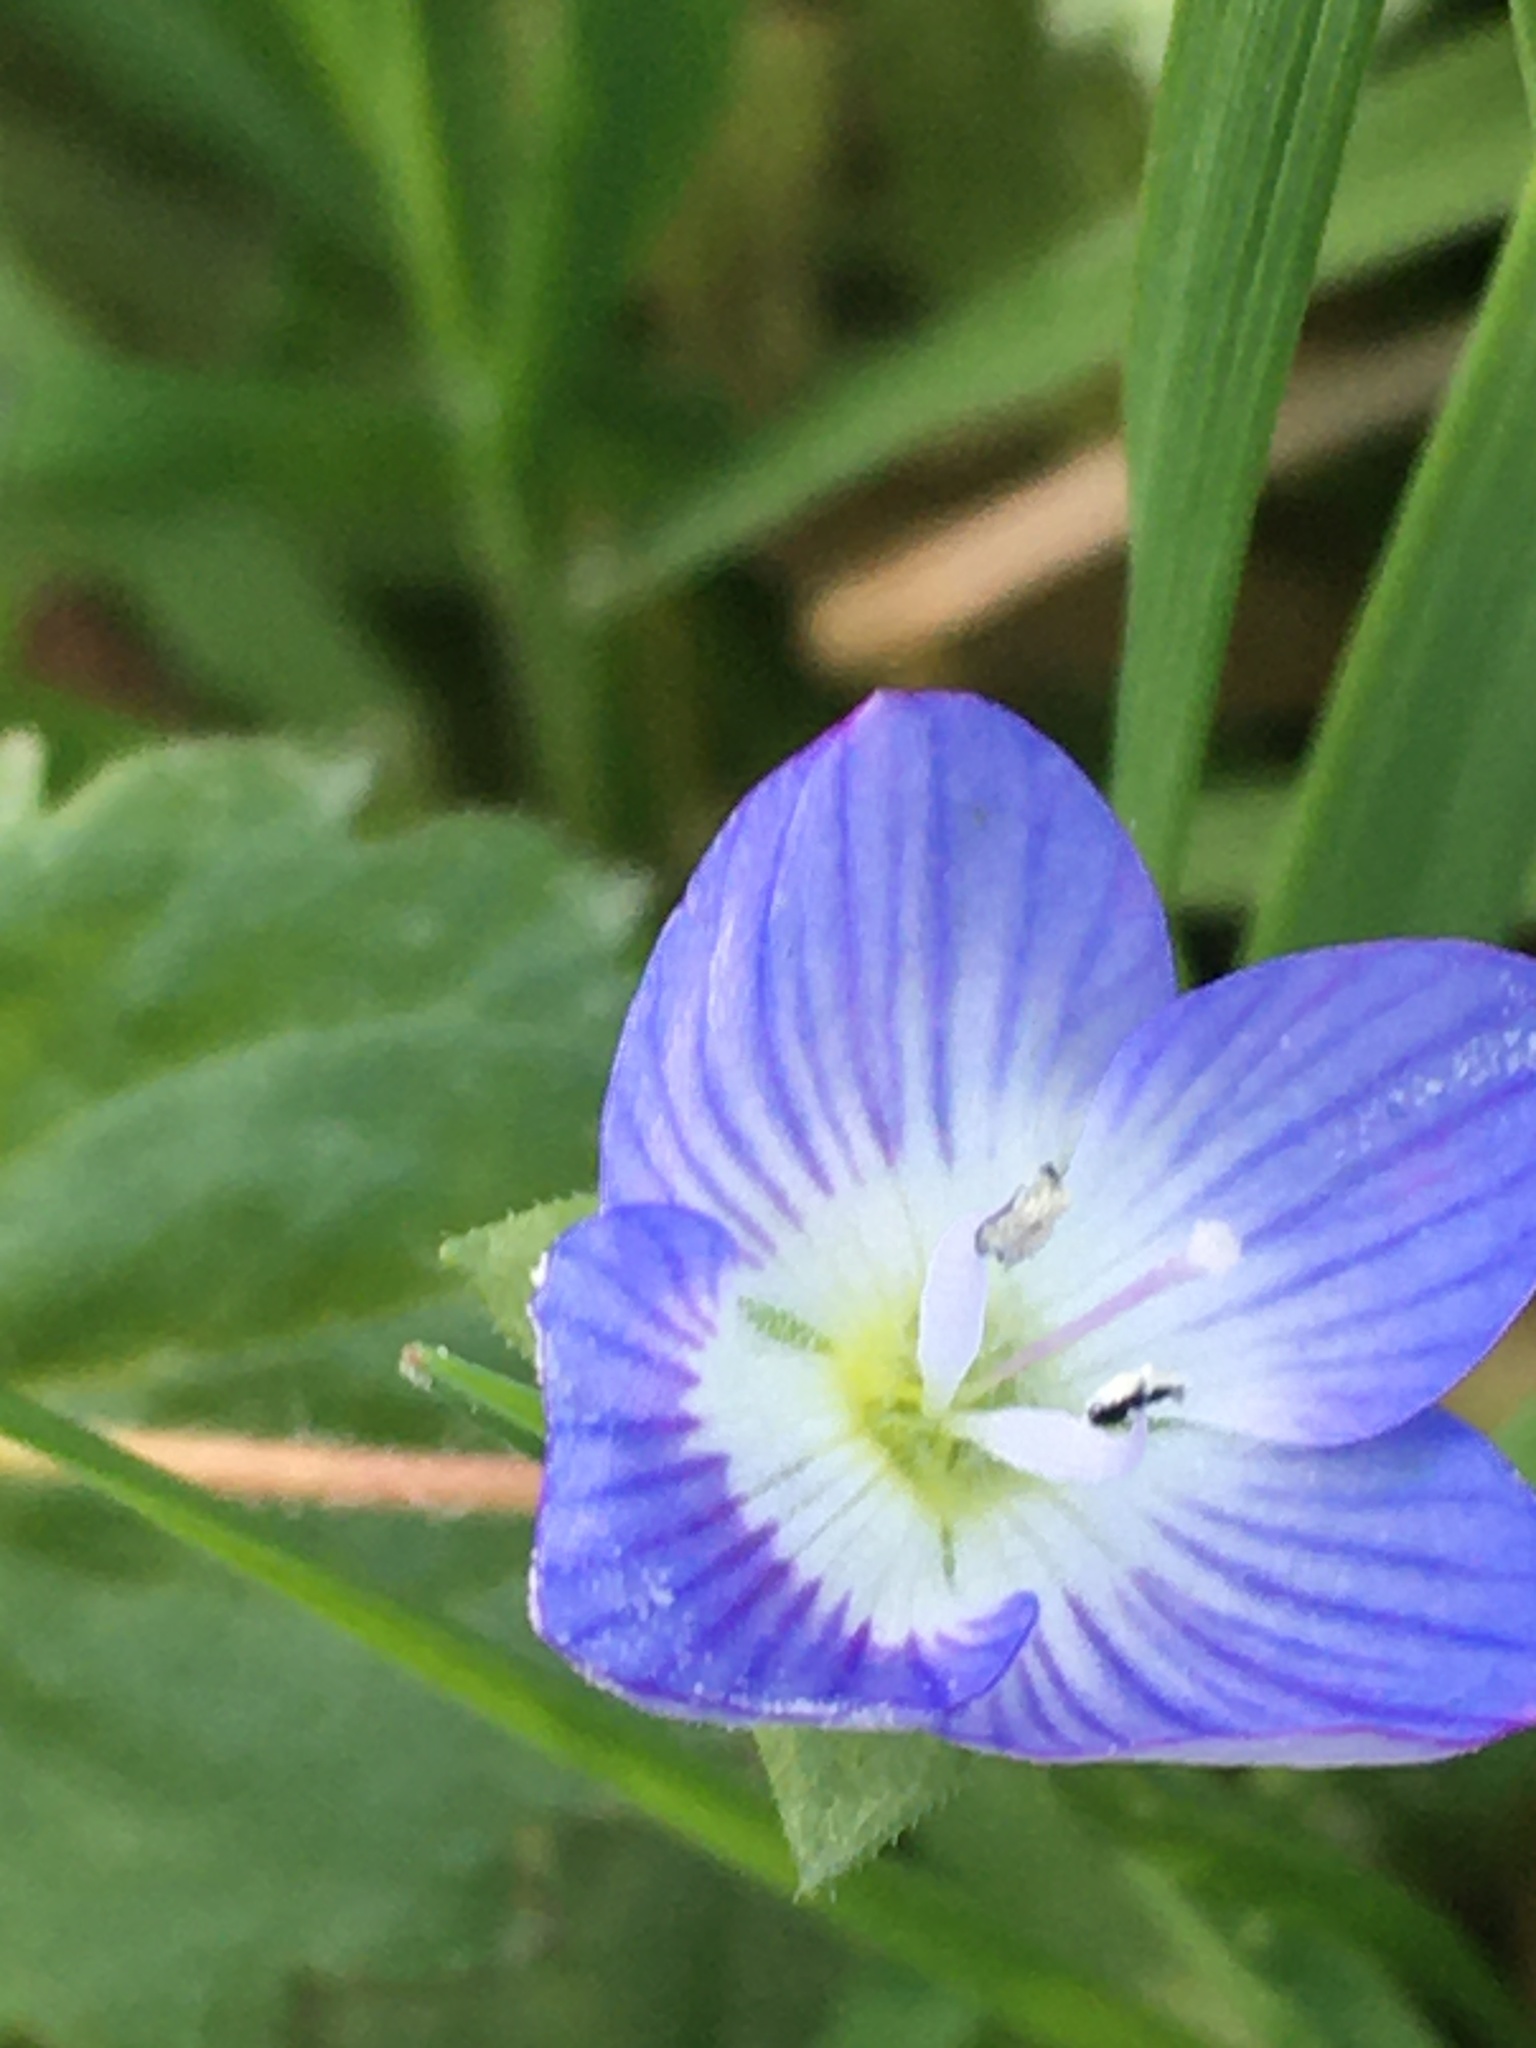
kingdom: Plantae
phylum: Tracheophyta
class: Magnoliopsida
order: Lamiales
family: Plantaginaceae
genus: Veronica
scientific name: Veronica persica
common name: Common field-speedwell
